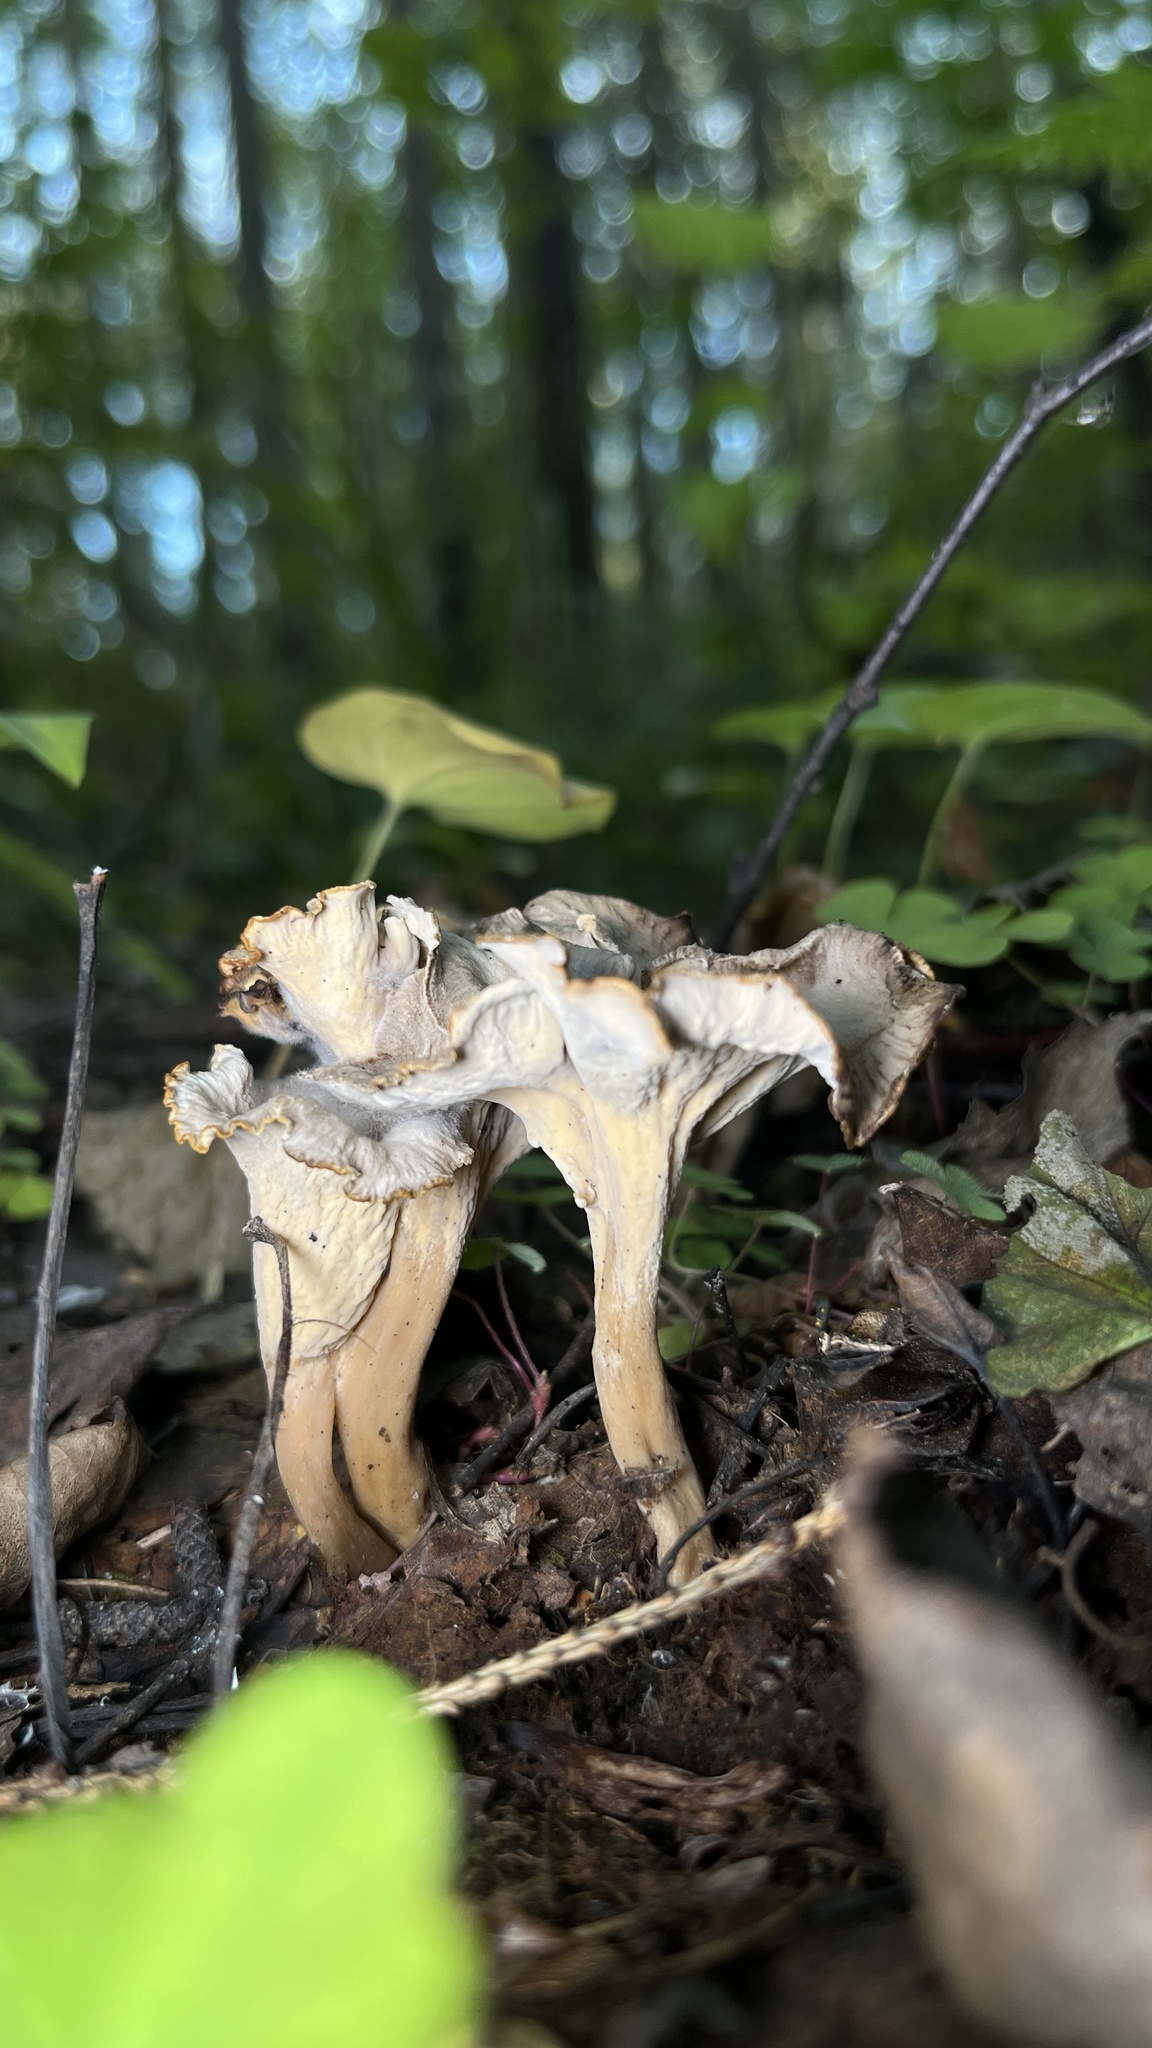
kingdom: Fungi
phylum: Basidiomycota
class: Agaricomycetes
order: Cantharellales
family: Hydnaceae
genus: Craterellus
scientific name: Craterellus undulatus
